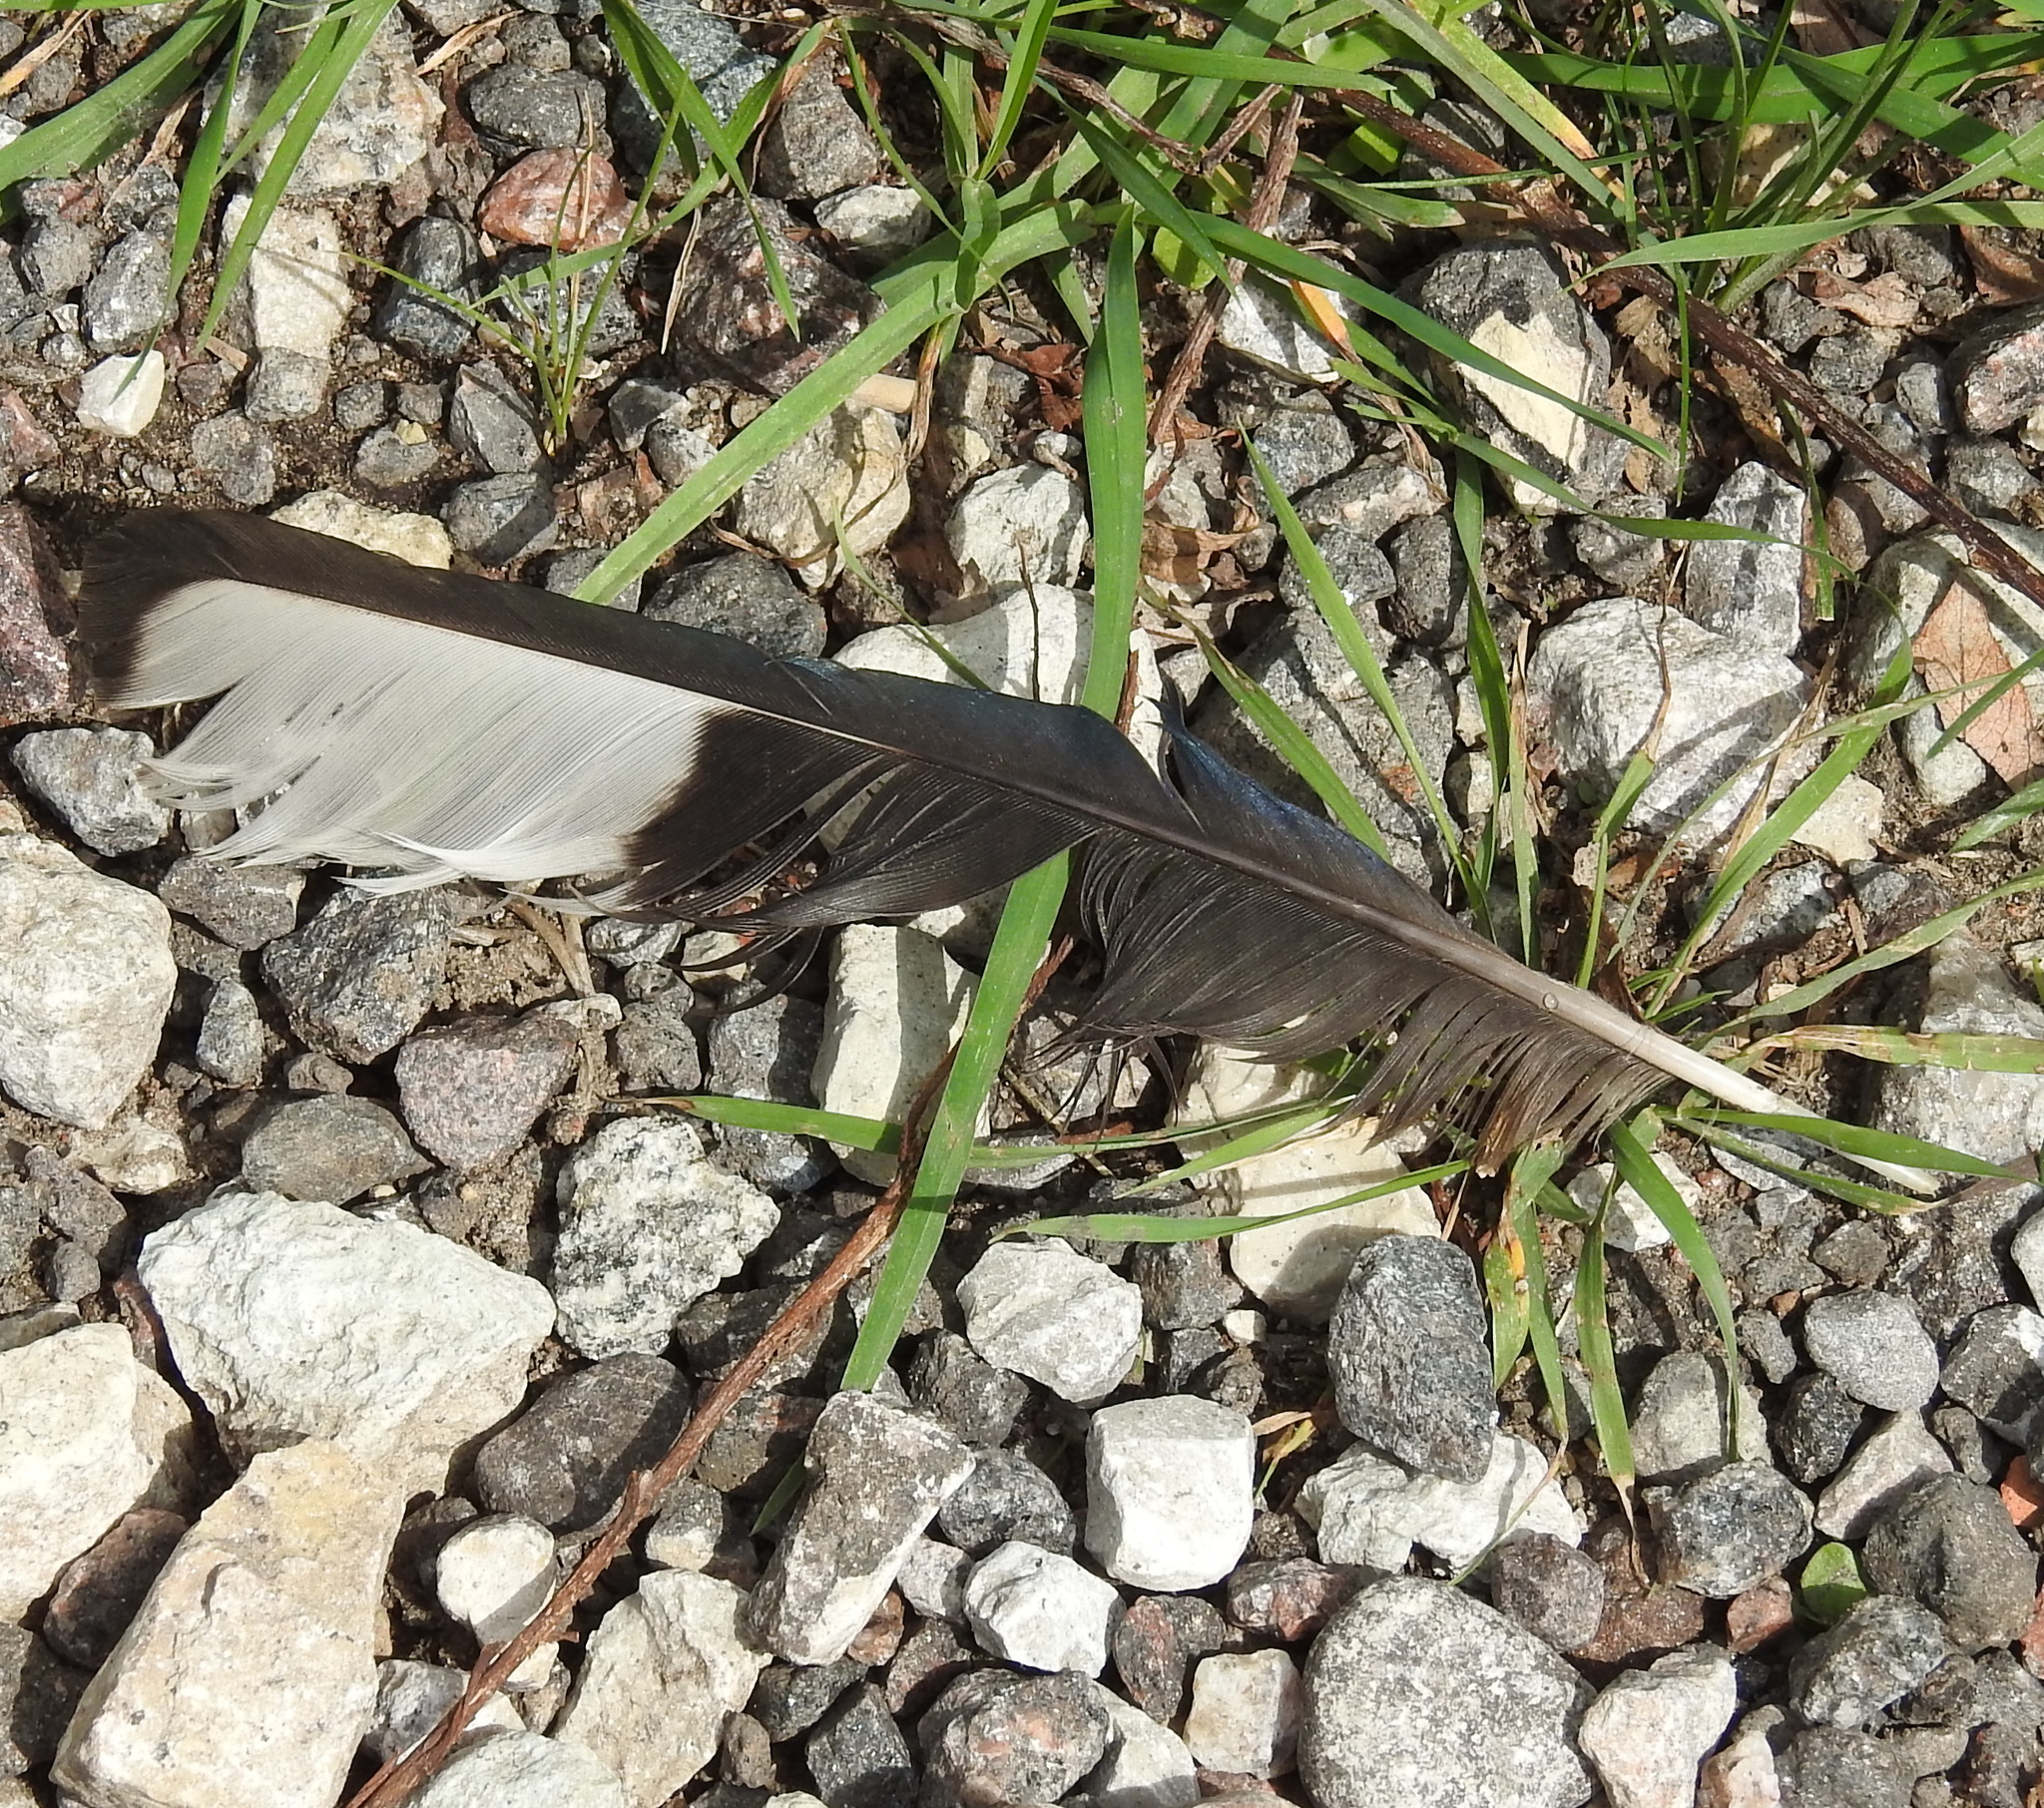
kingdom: Animalia
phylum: Chordata
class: Aves
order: Passeriformes
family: Corvidae
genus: Pica
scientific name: Pica pica
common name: Eurasian magpie
